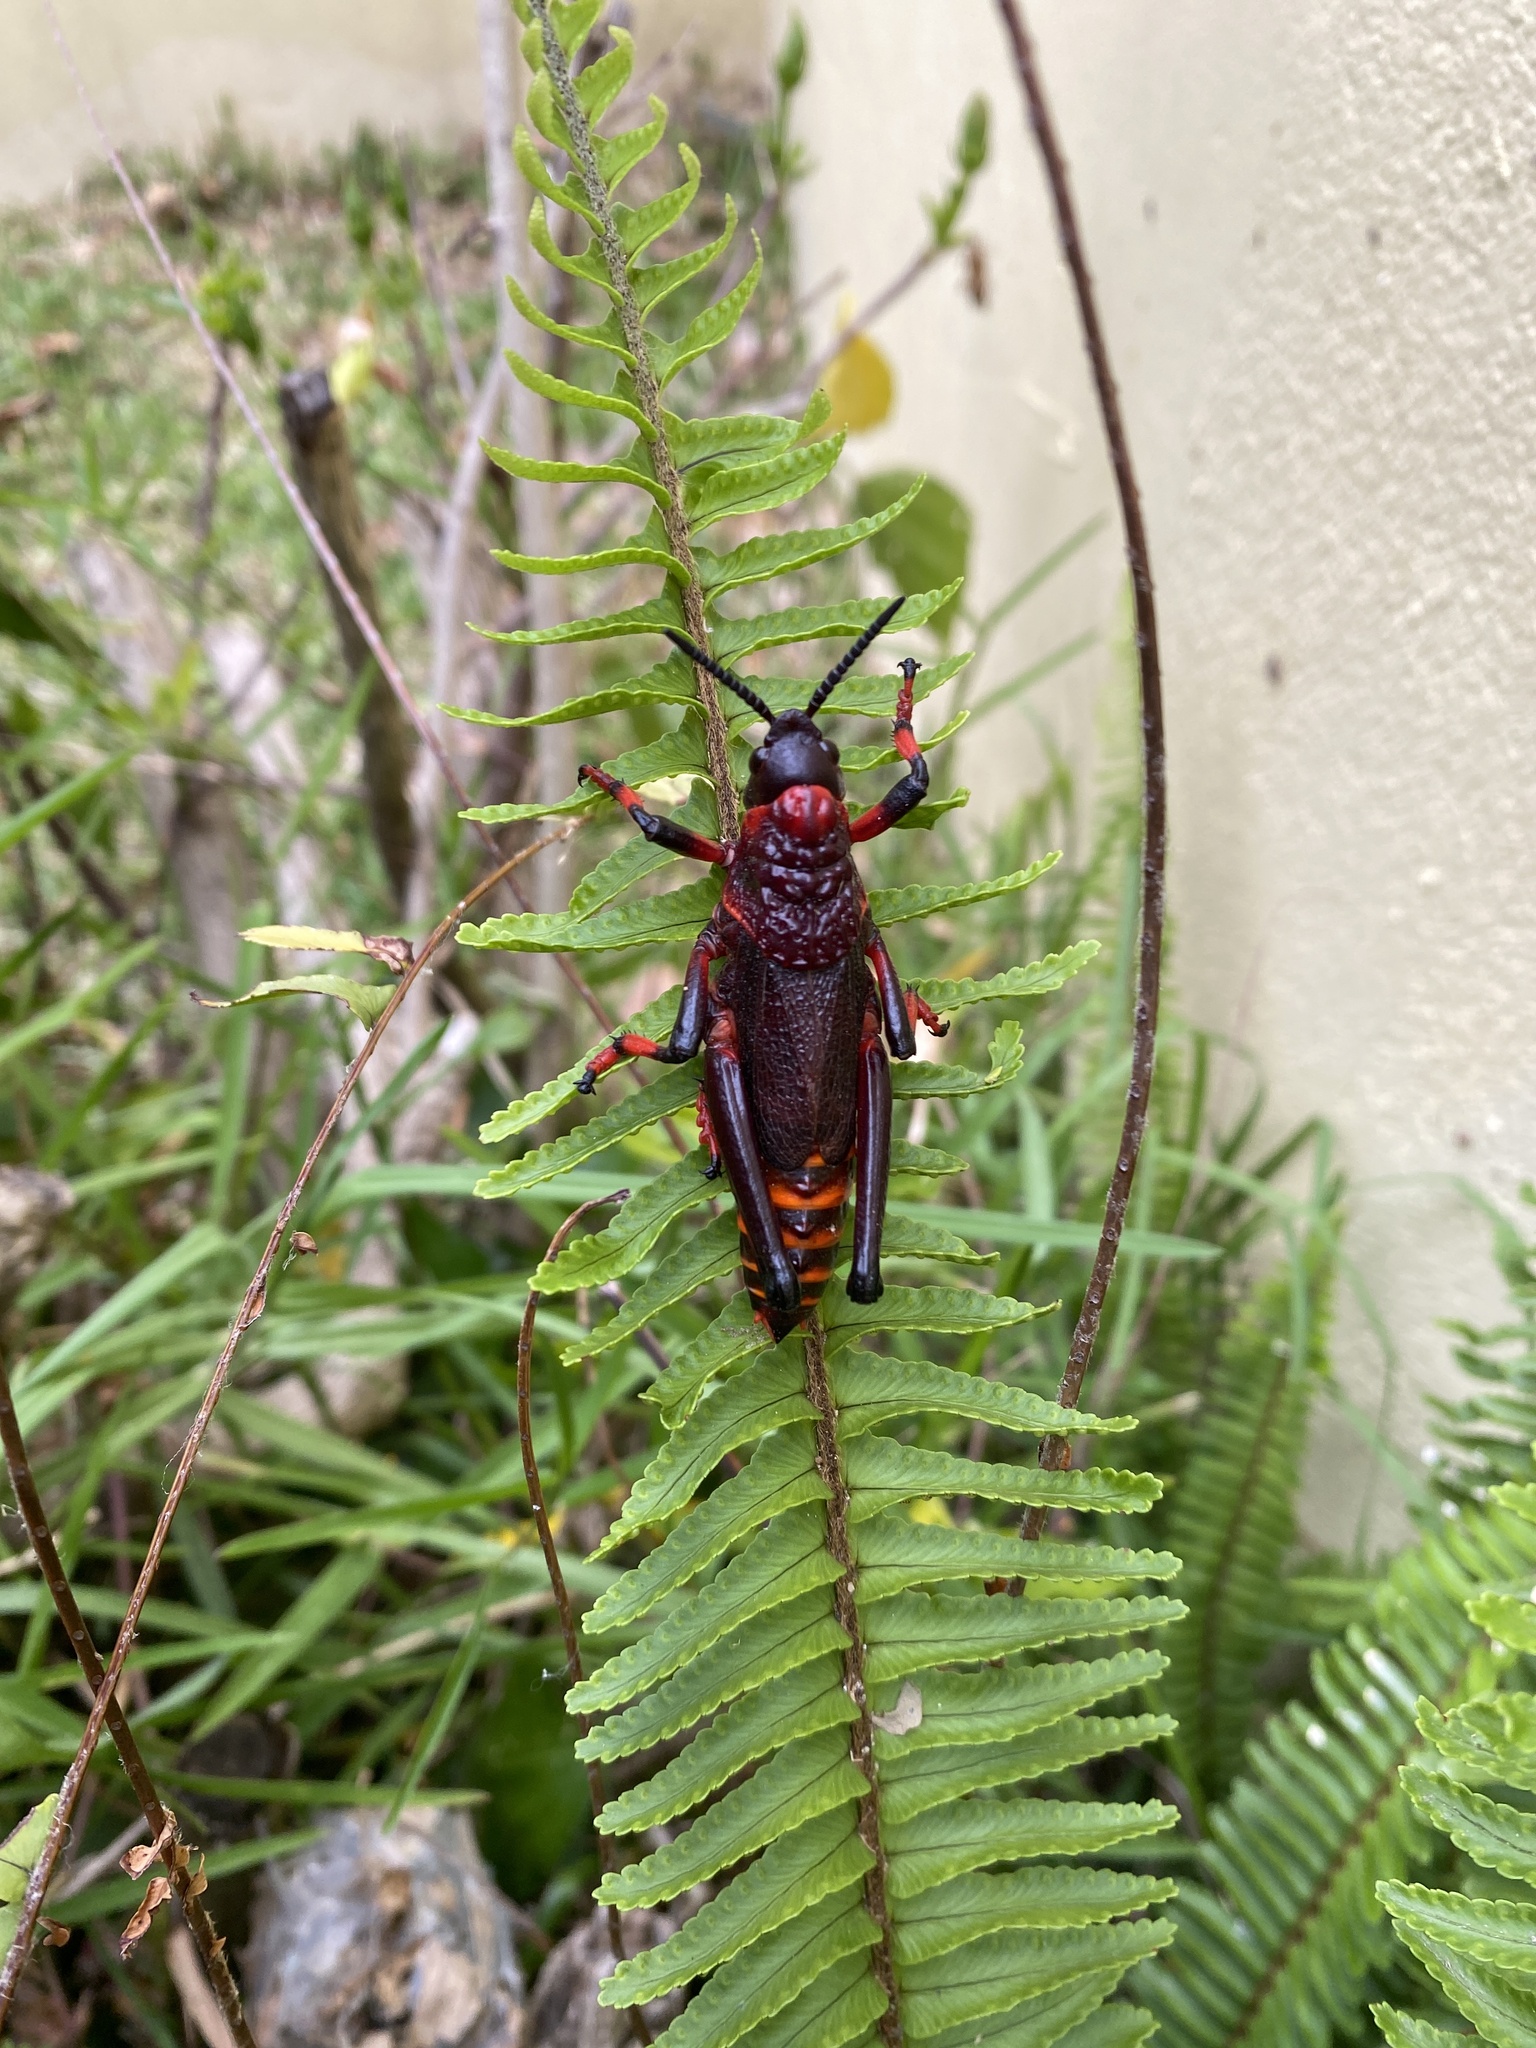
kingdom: Animalia
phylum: Arthropoda
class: Insecta
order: Orthoptera
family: Pyrgomorphidae
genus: Dictyophorus
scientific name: Dictyophorus spumans
